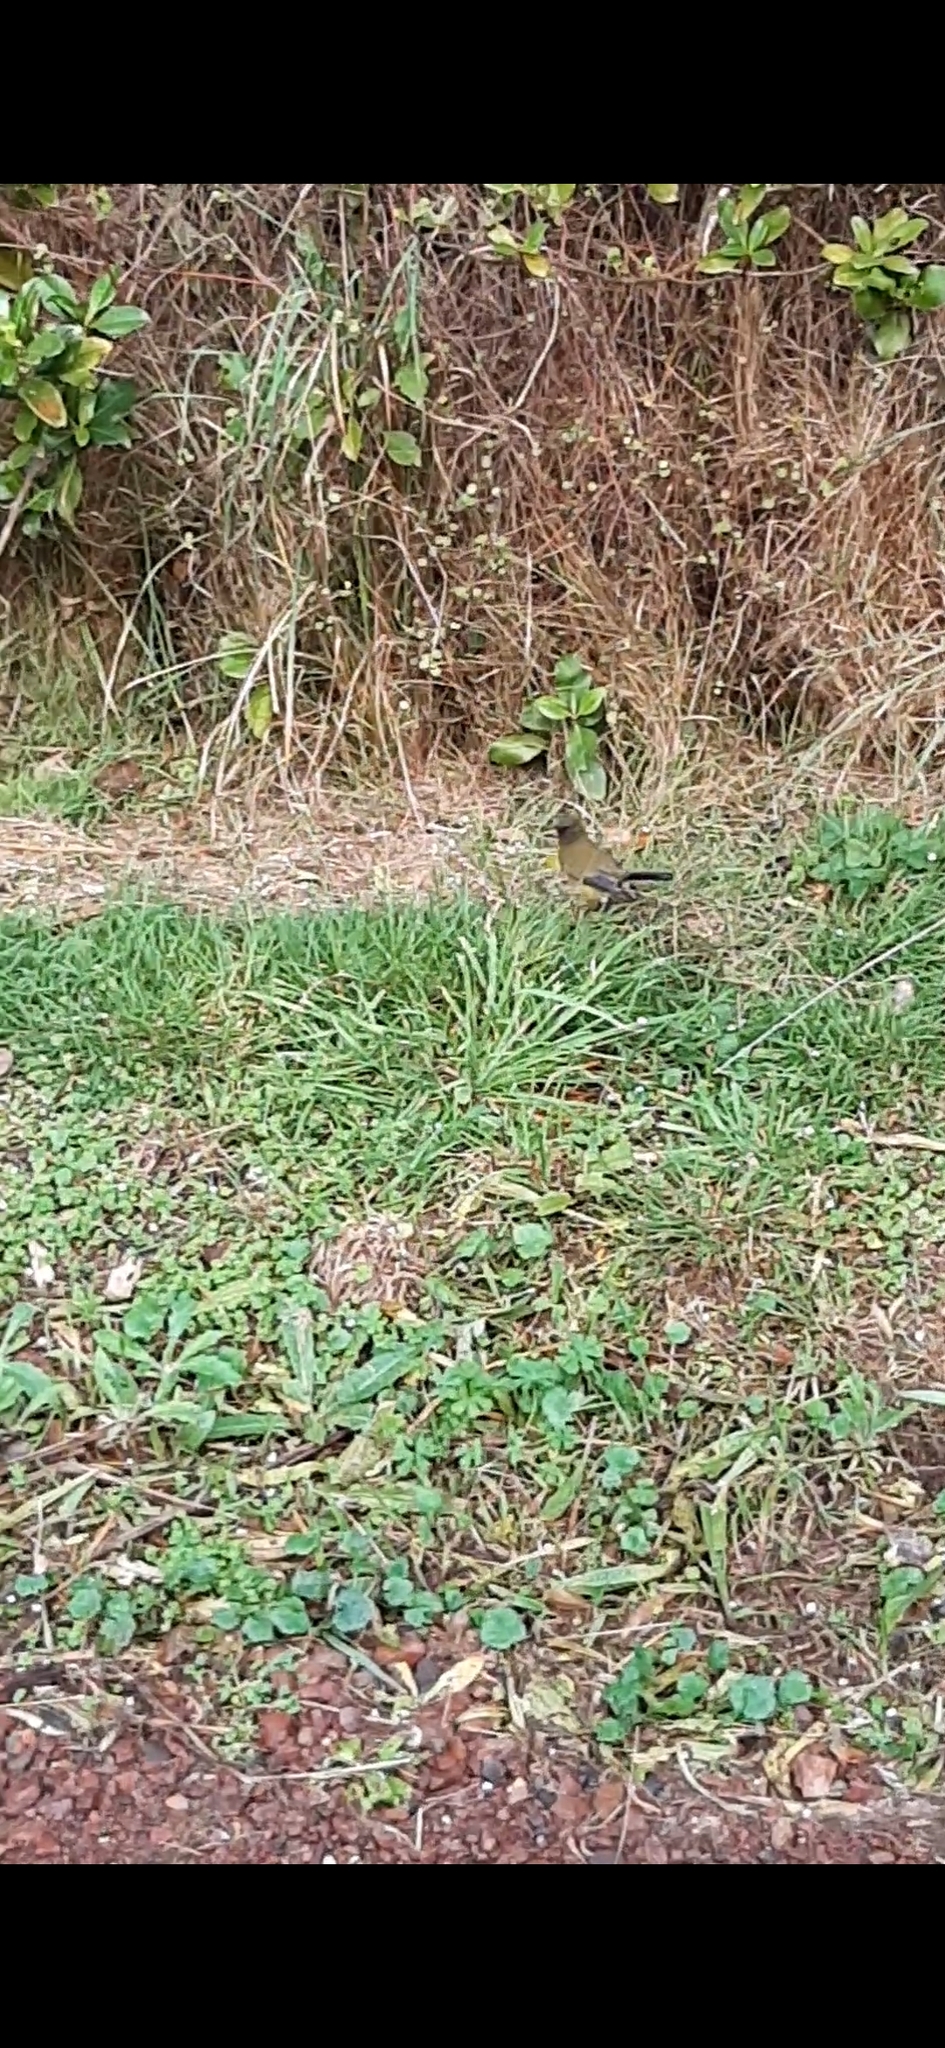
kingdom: Animalia
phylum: Chordata
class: Aves
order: Passeriformes
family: Meliphagidae
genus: Anthornis
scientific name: Anthornis melanura
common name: New zealand bellbird
